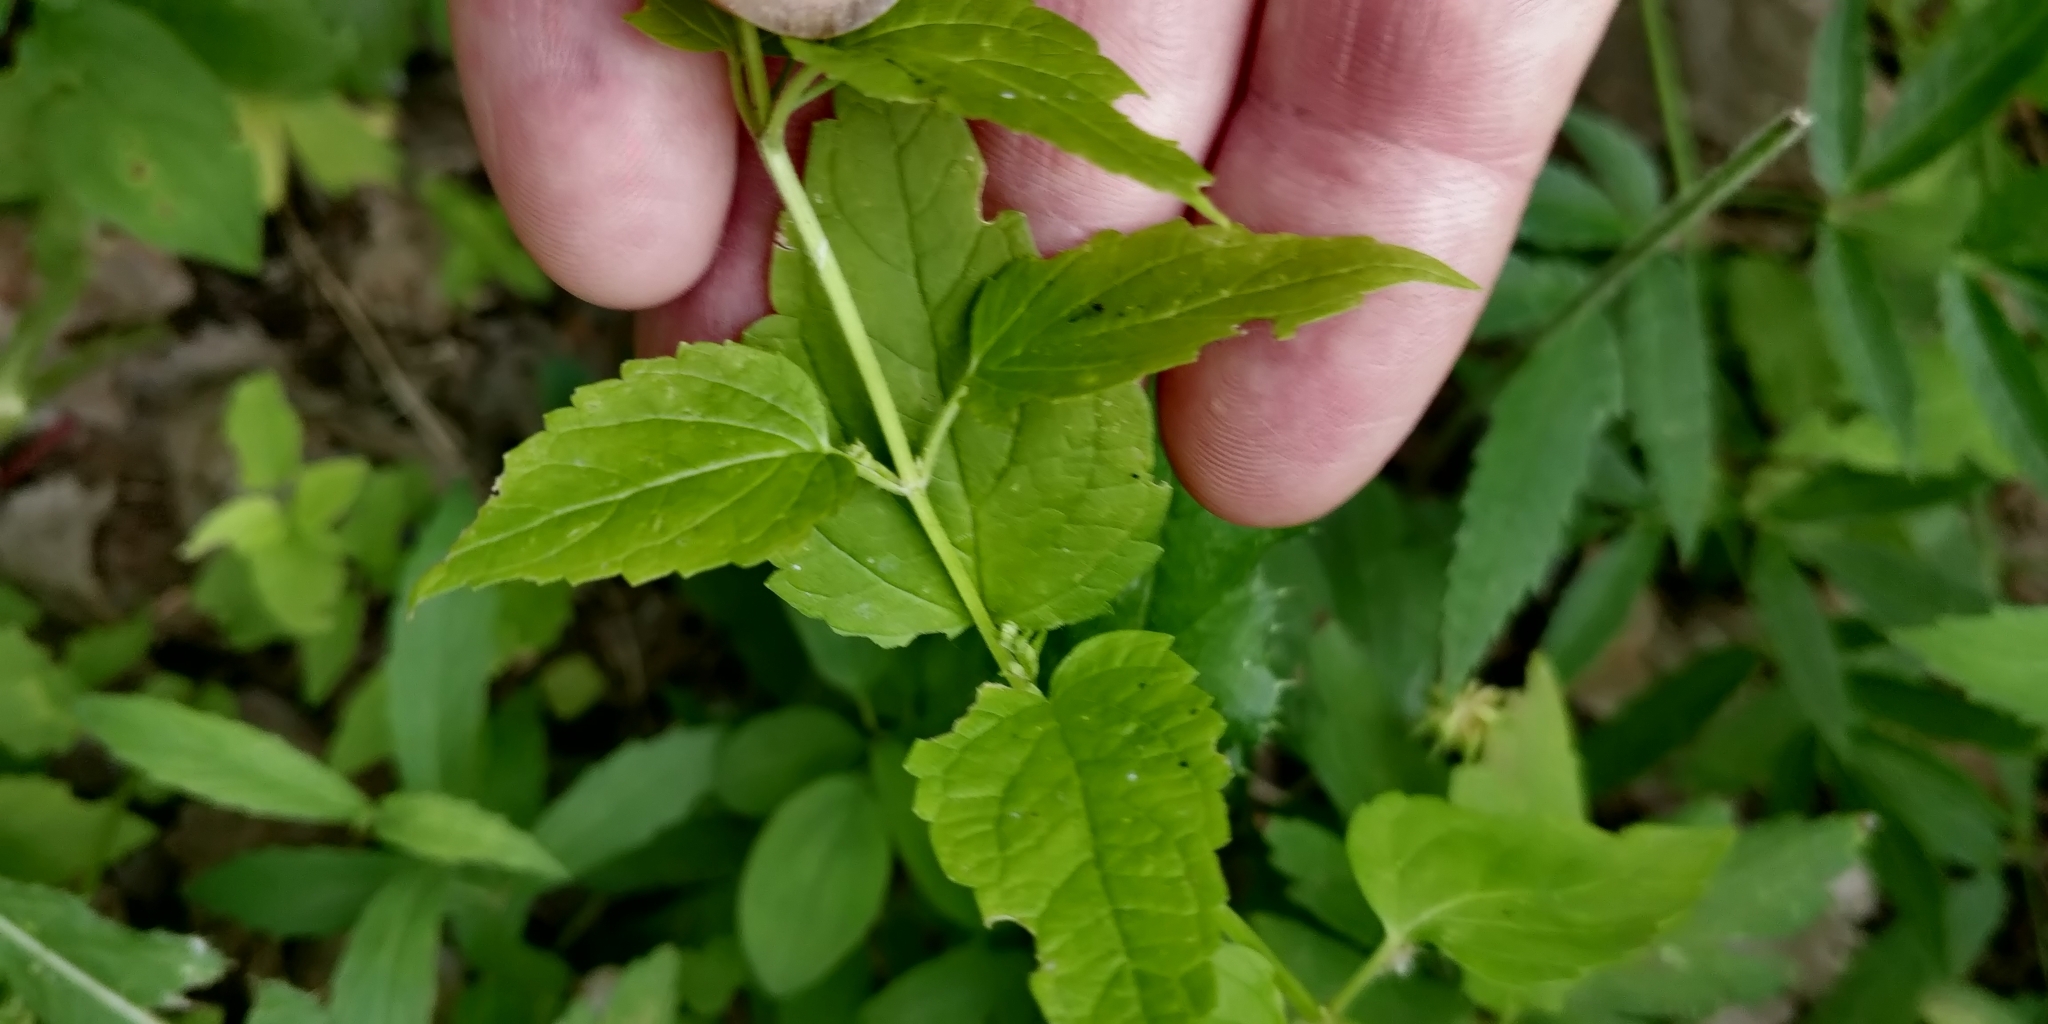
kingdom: Plantae
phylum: Tracheophyta
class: Magnoliopsida
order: Lamiales
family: Lamiaceae
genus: Scutellaria
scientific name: Scutellaria lateriflora
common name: Blue skullcap
